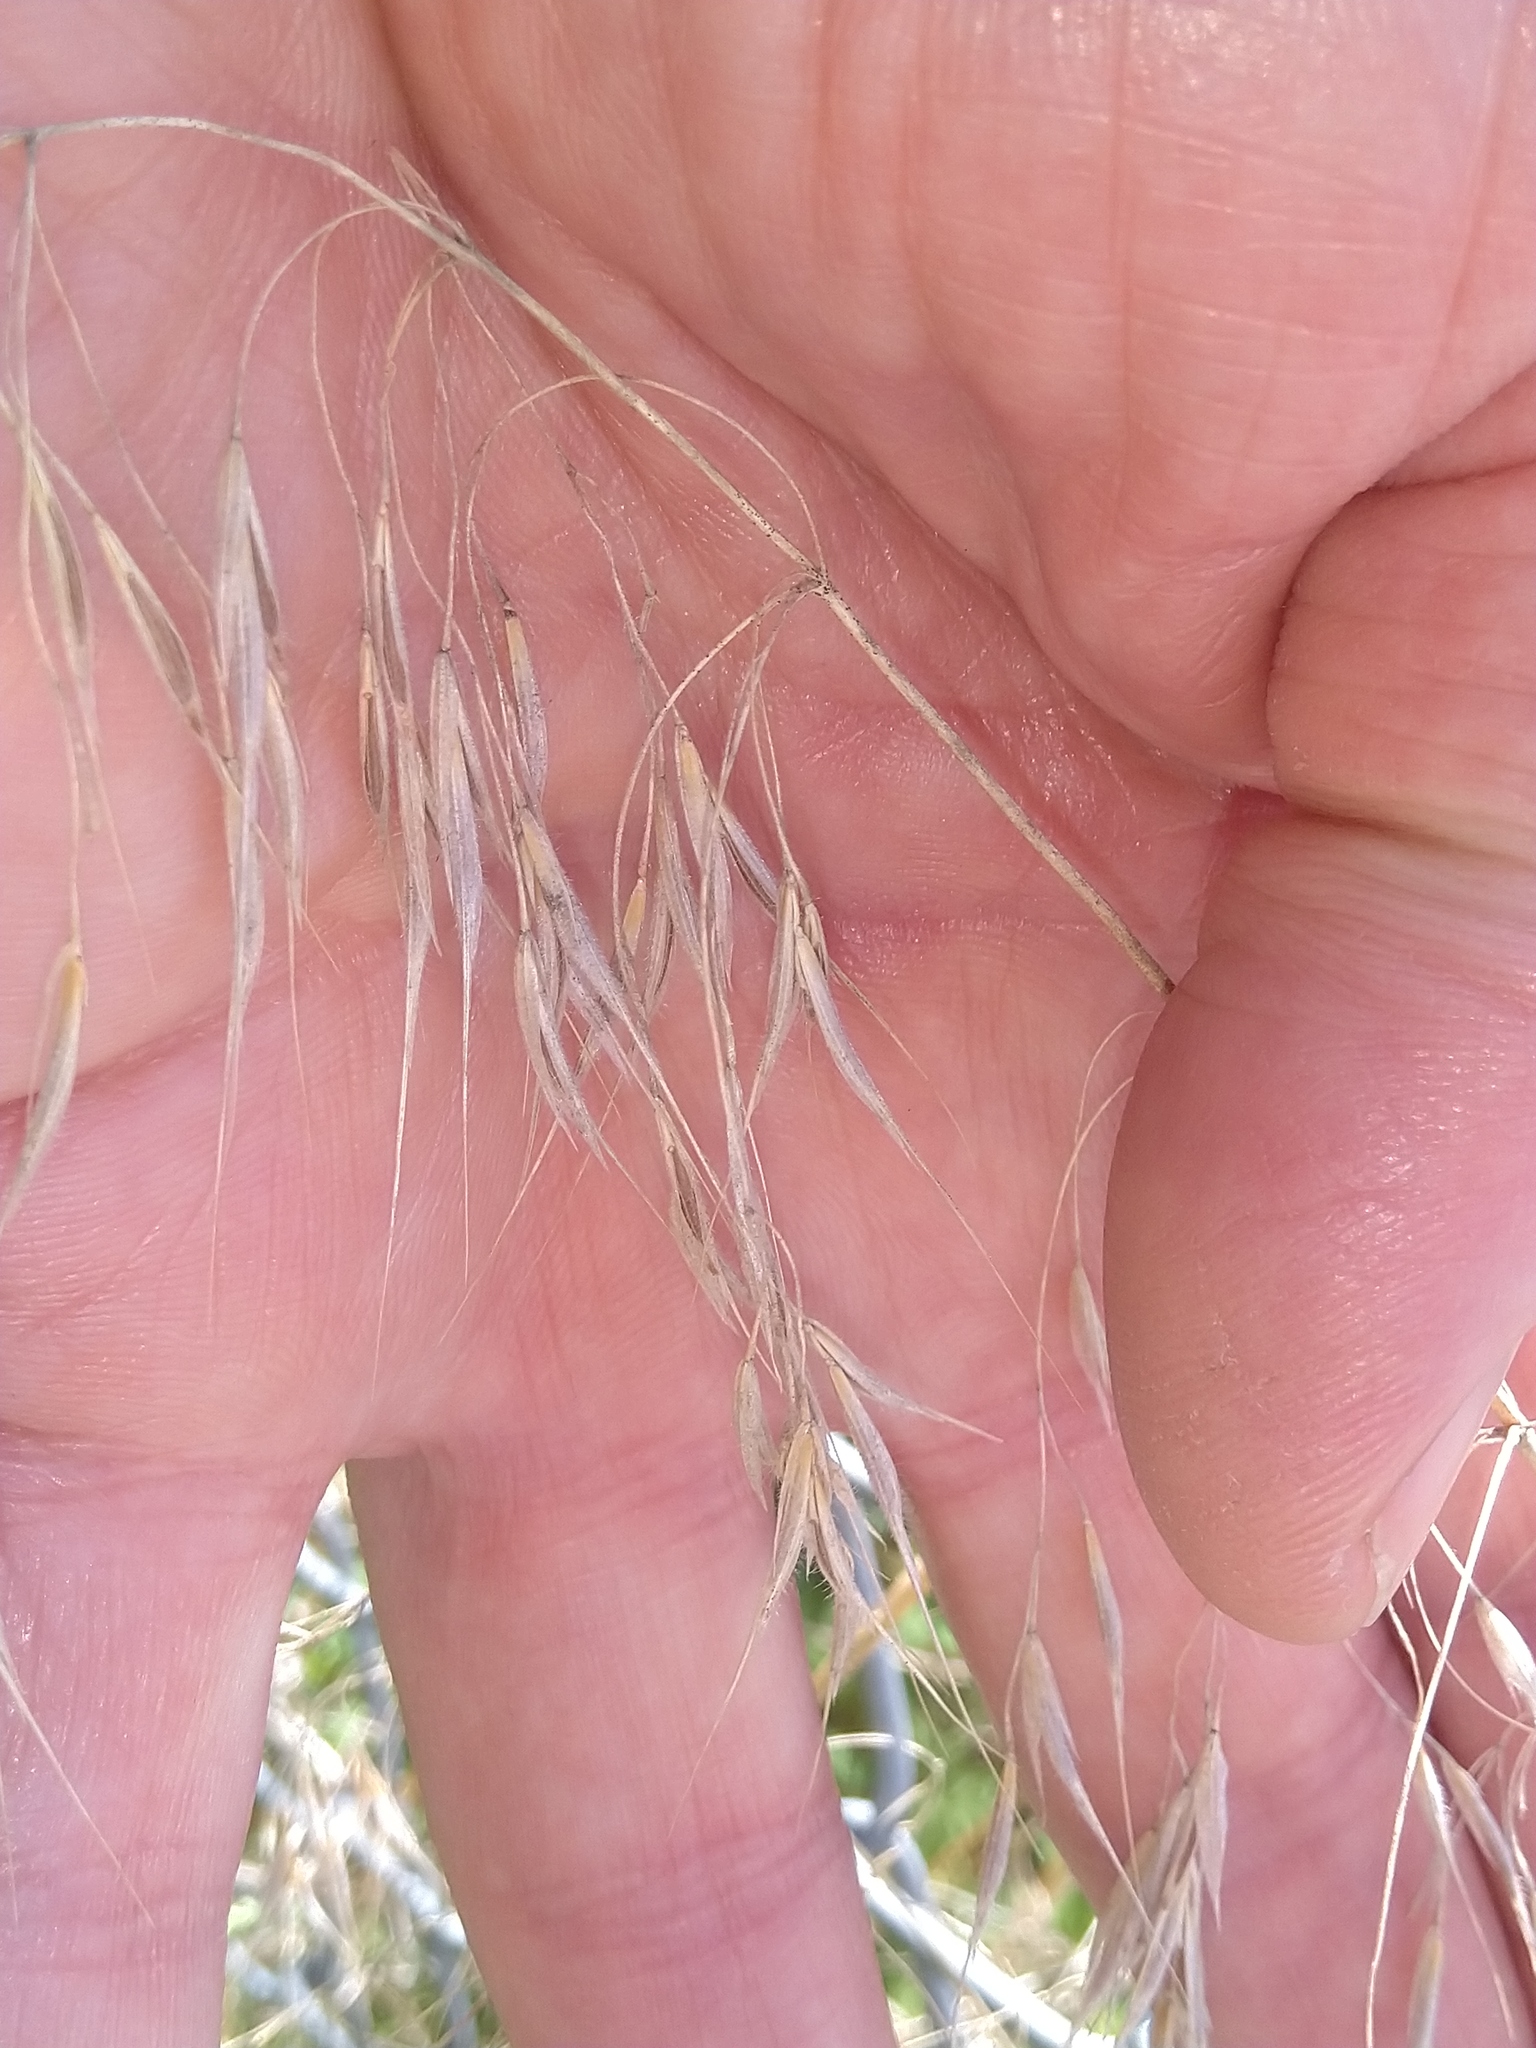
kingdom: Plantae
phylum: Tracheophyta
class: Liliopsida
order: Poales
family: Poaceae
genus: Bromus
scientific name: Bromus tectorum
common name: Cheatgrass
